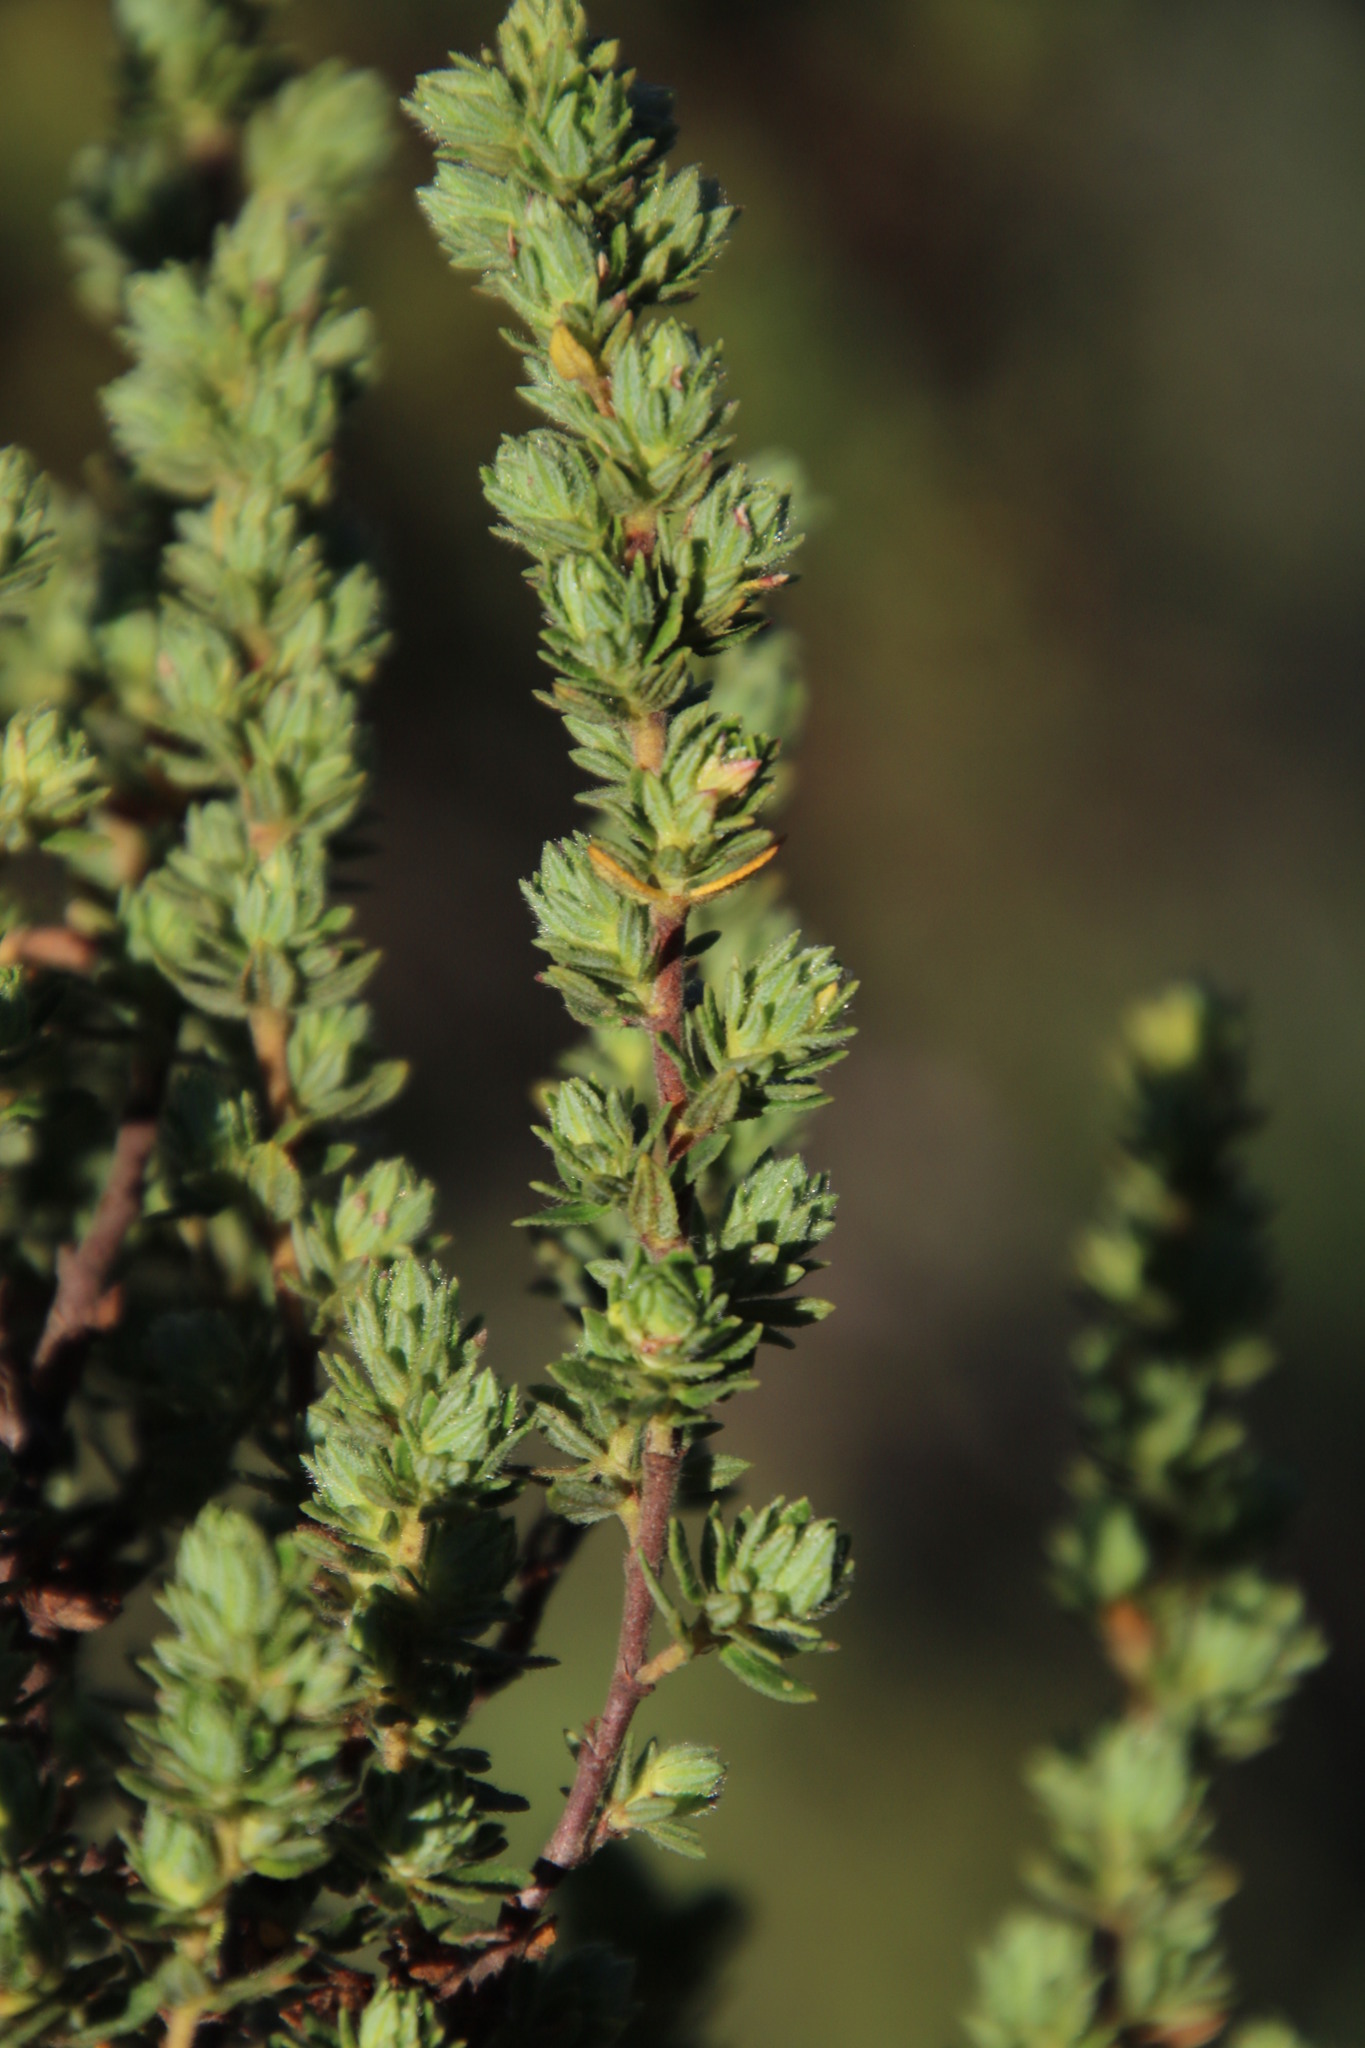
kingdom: Plantae
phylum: Tracheophyta
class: Magnoliopsida
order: Rosales
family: Rosaceae
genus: Cliffortia
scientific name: Cliffortia polygonifolia
